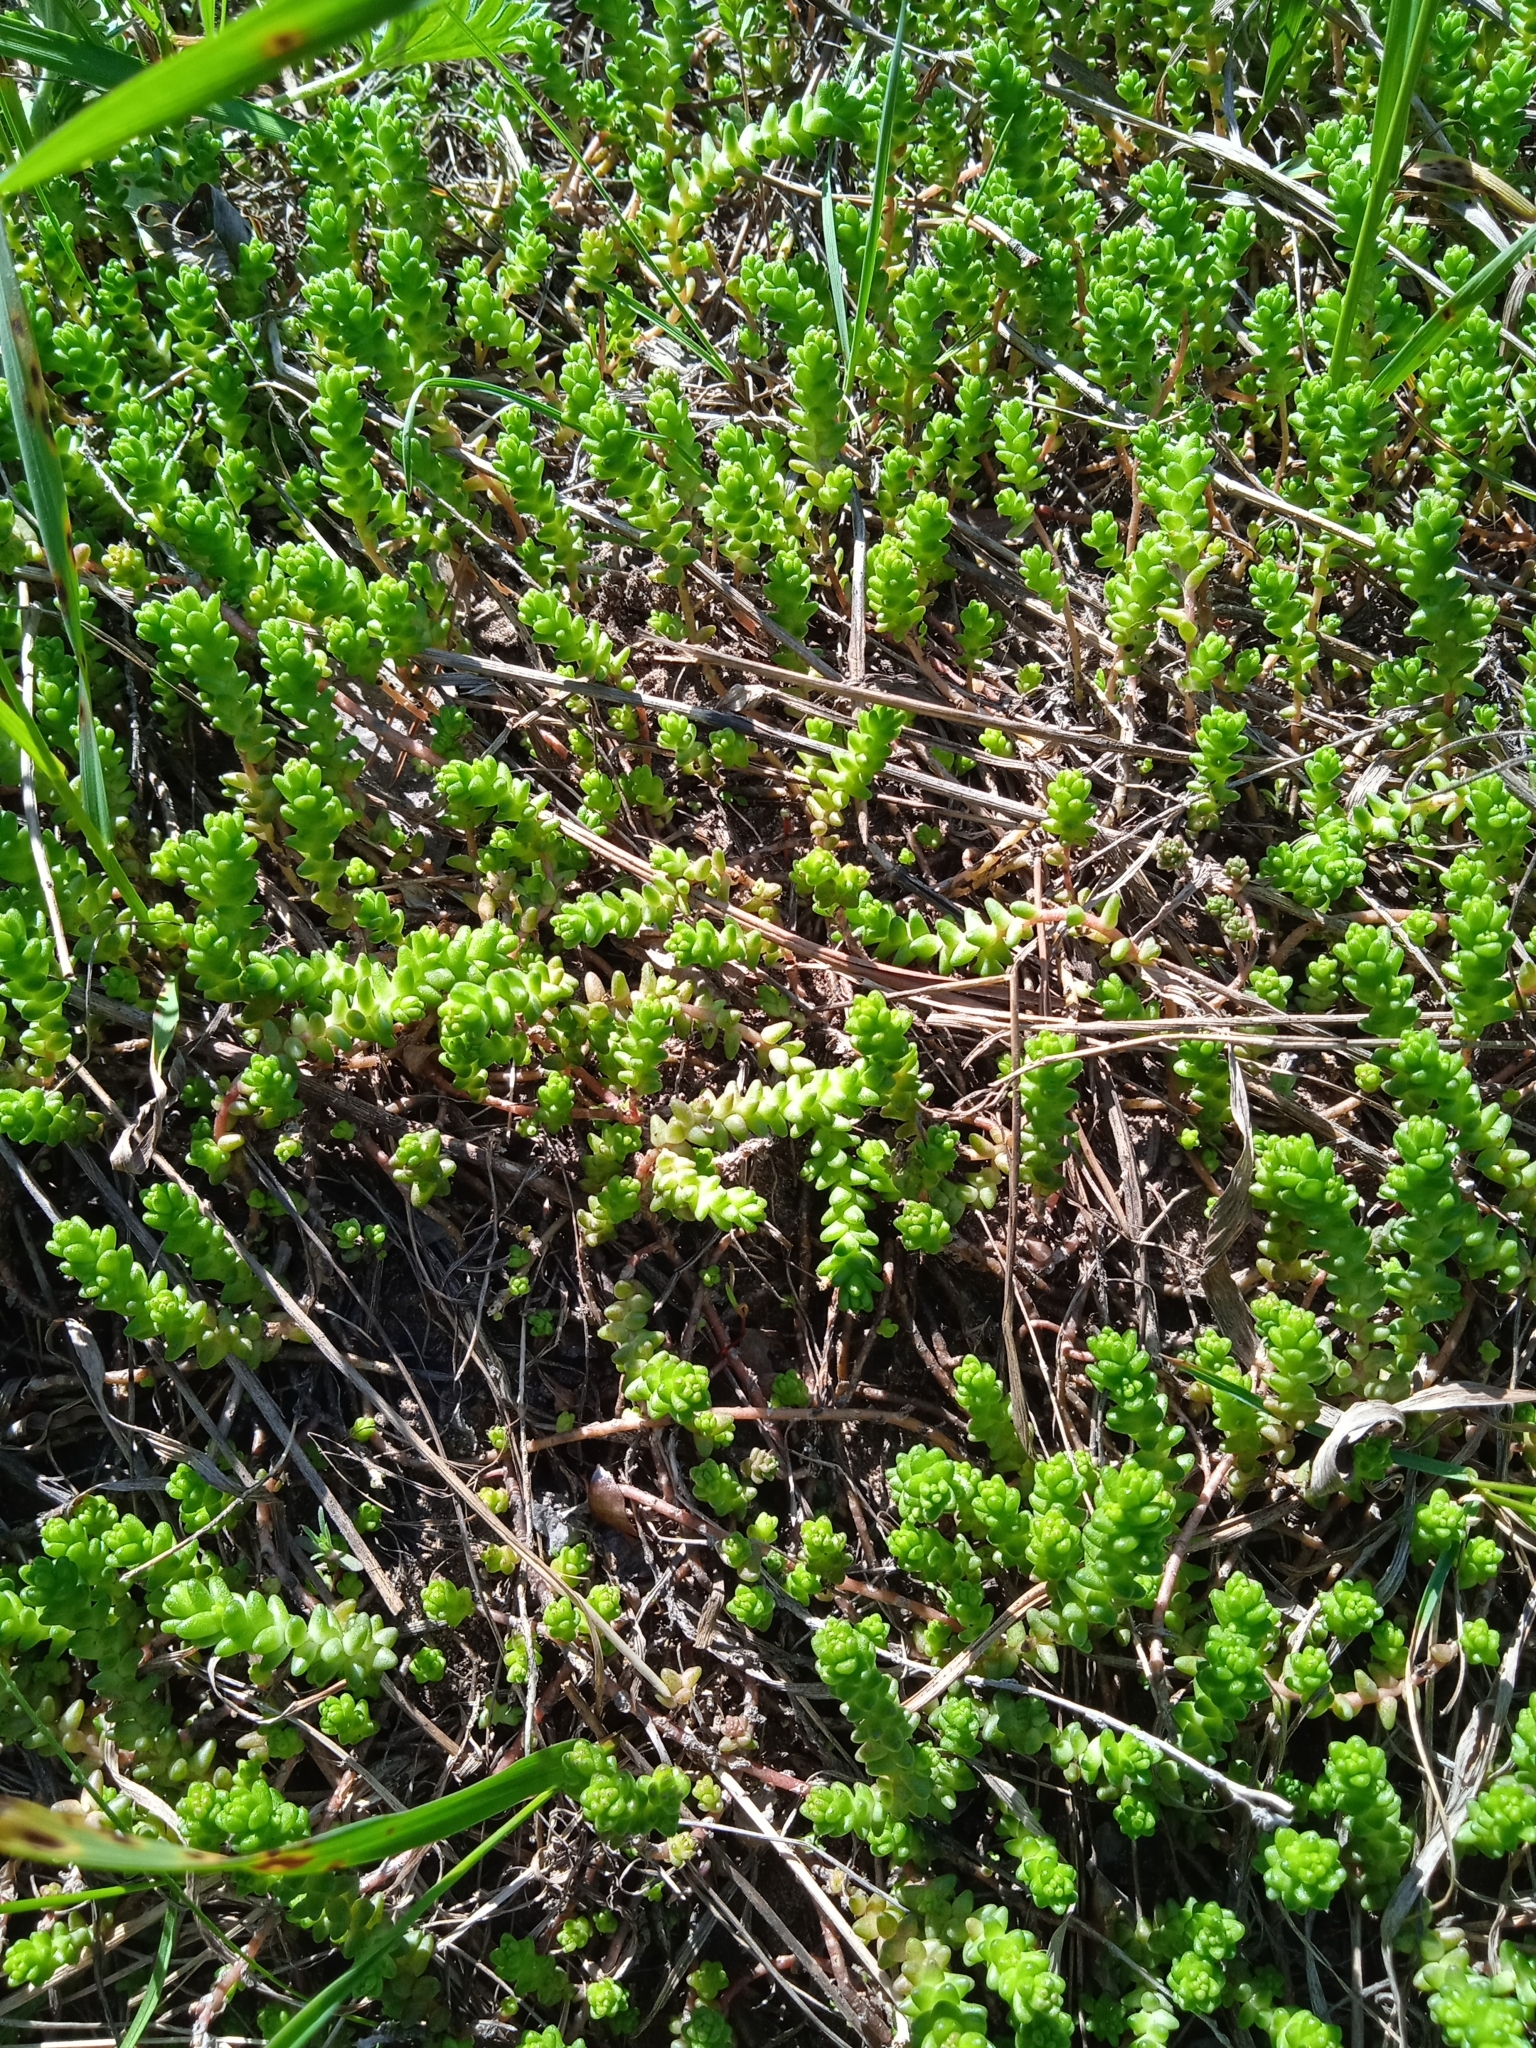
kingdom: Plantae
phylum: Tracheophyta
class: Magnoliopsida
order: Saxifragales
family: Crassulaceae
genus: Sedum
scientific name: Sedum acre
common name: Biting stonecrop
